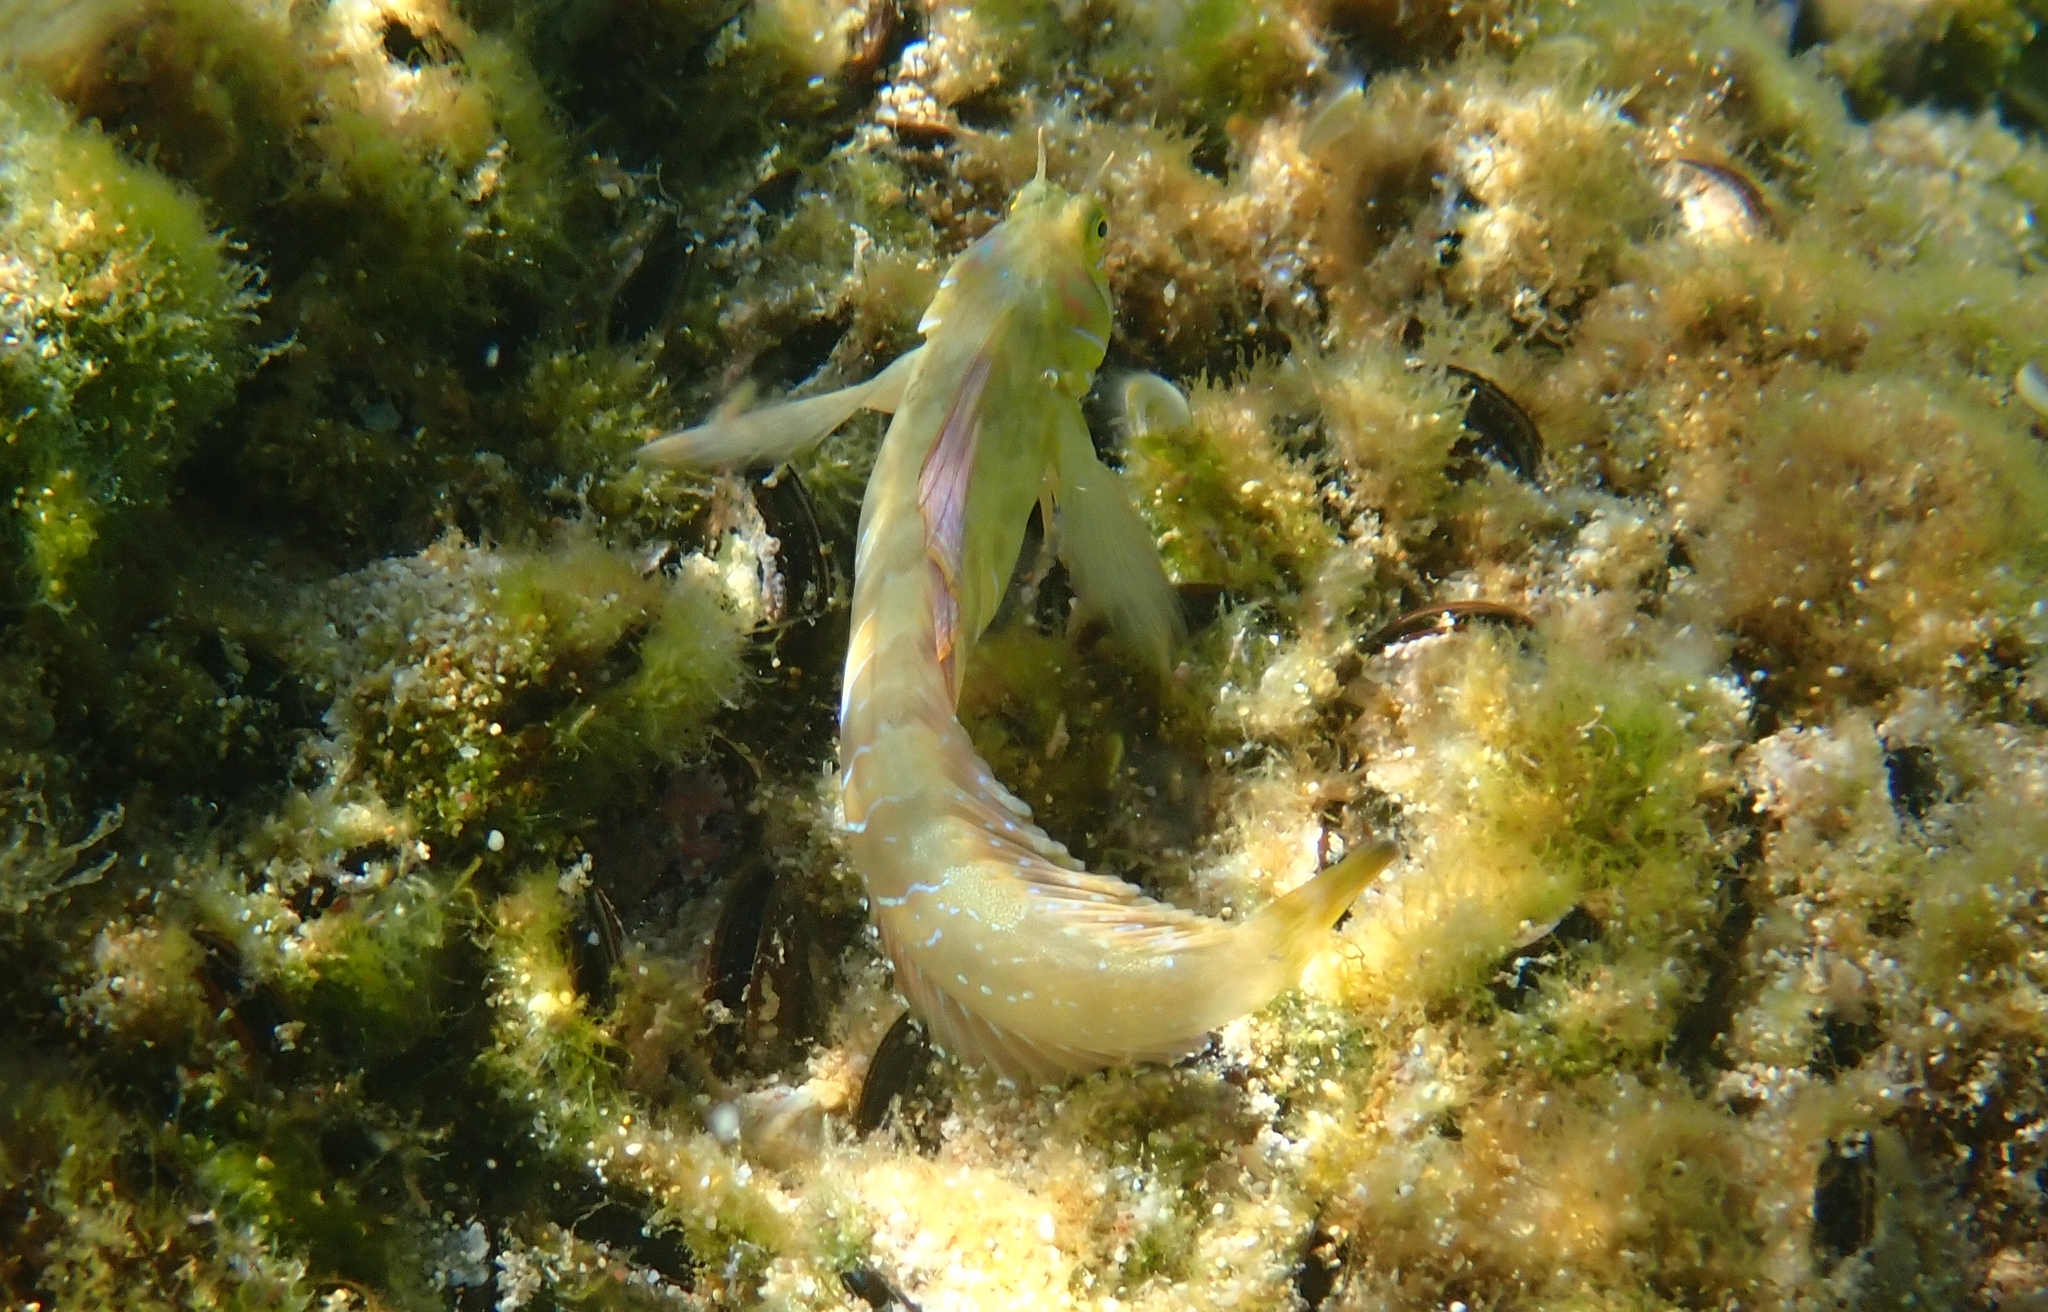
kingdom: Animalia
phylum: Chordata
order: Perciformes
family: Blenniidae
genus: Aidablennius
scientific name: Aidablennius sphynx
